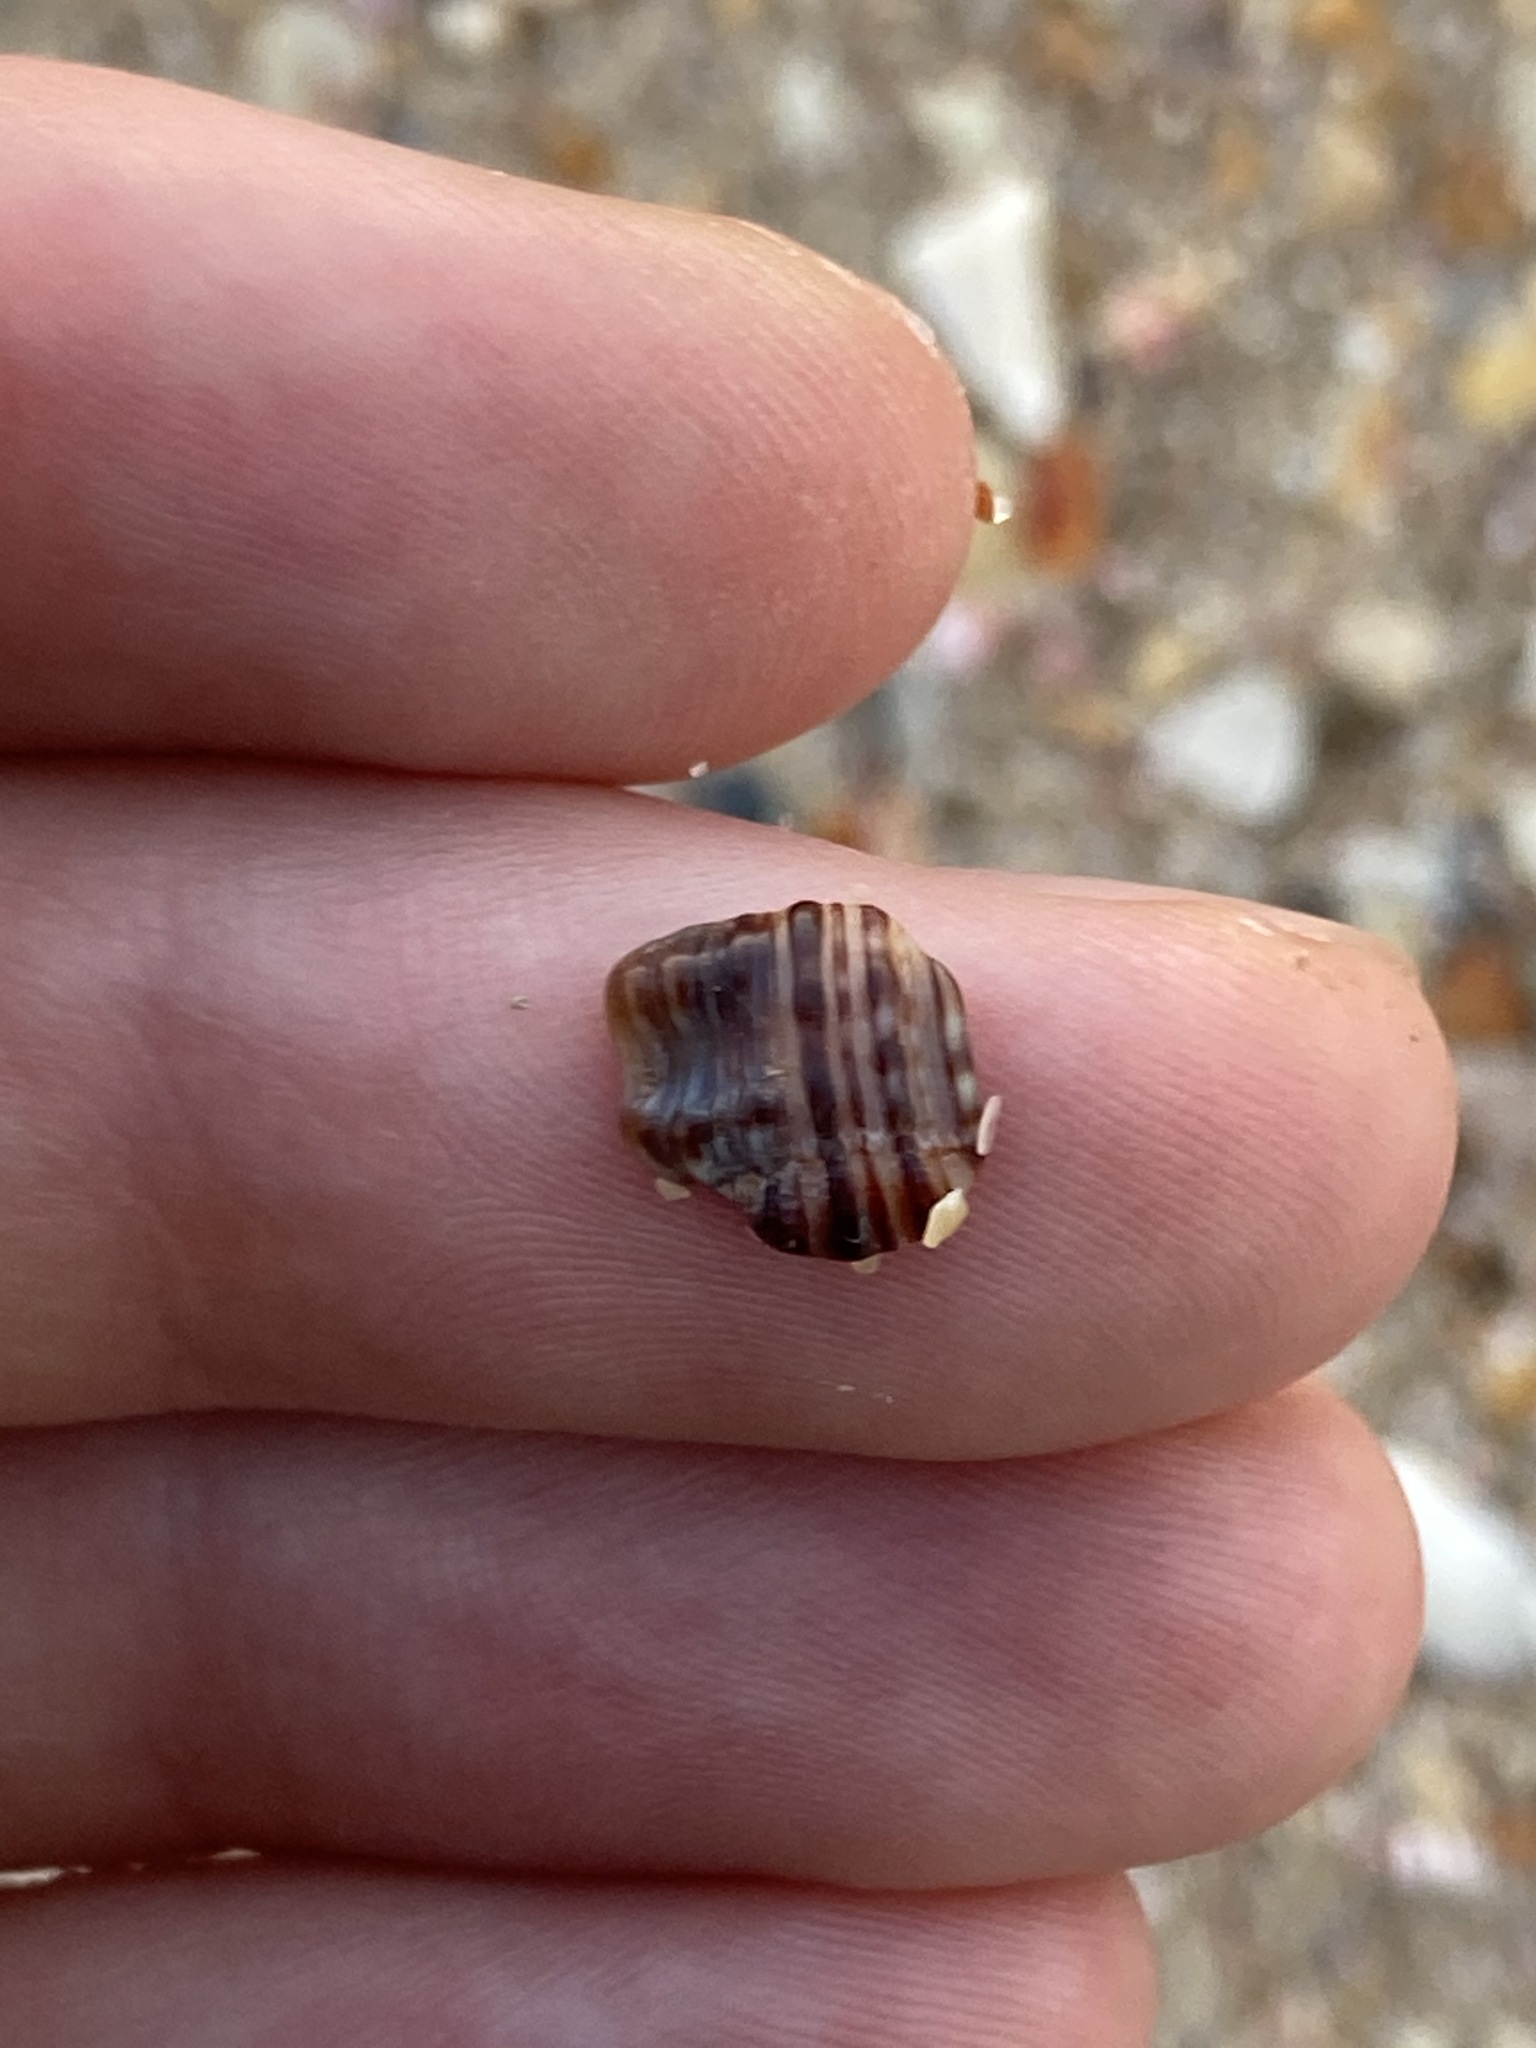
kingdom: Animalia
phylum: Mollusca
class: Gastropoda
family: Batillariidae
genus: Batillaria
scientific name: Batillaria australis
